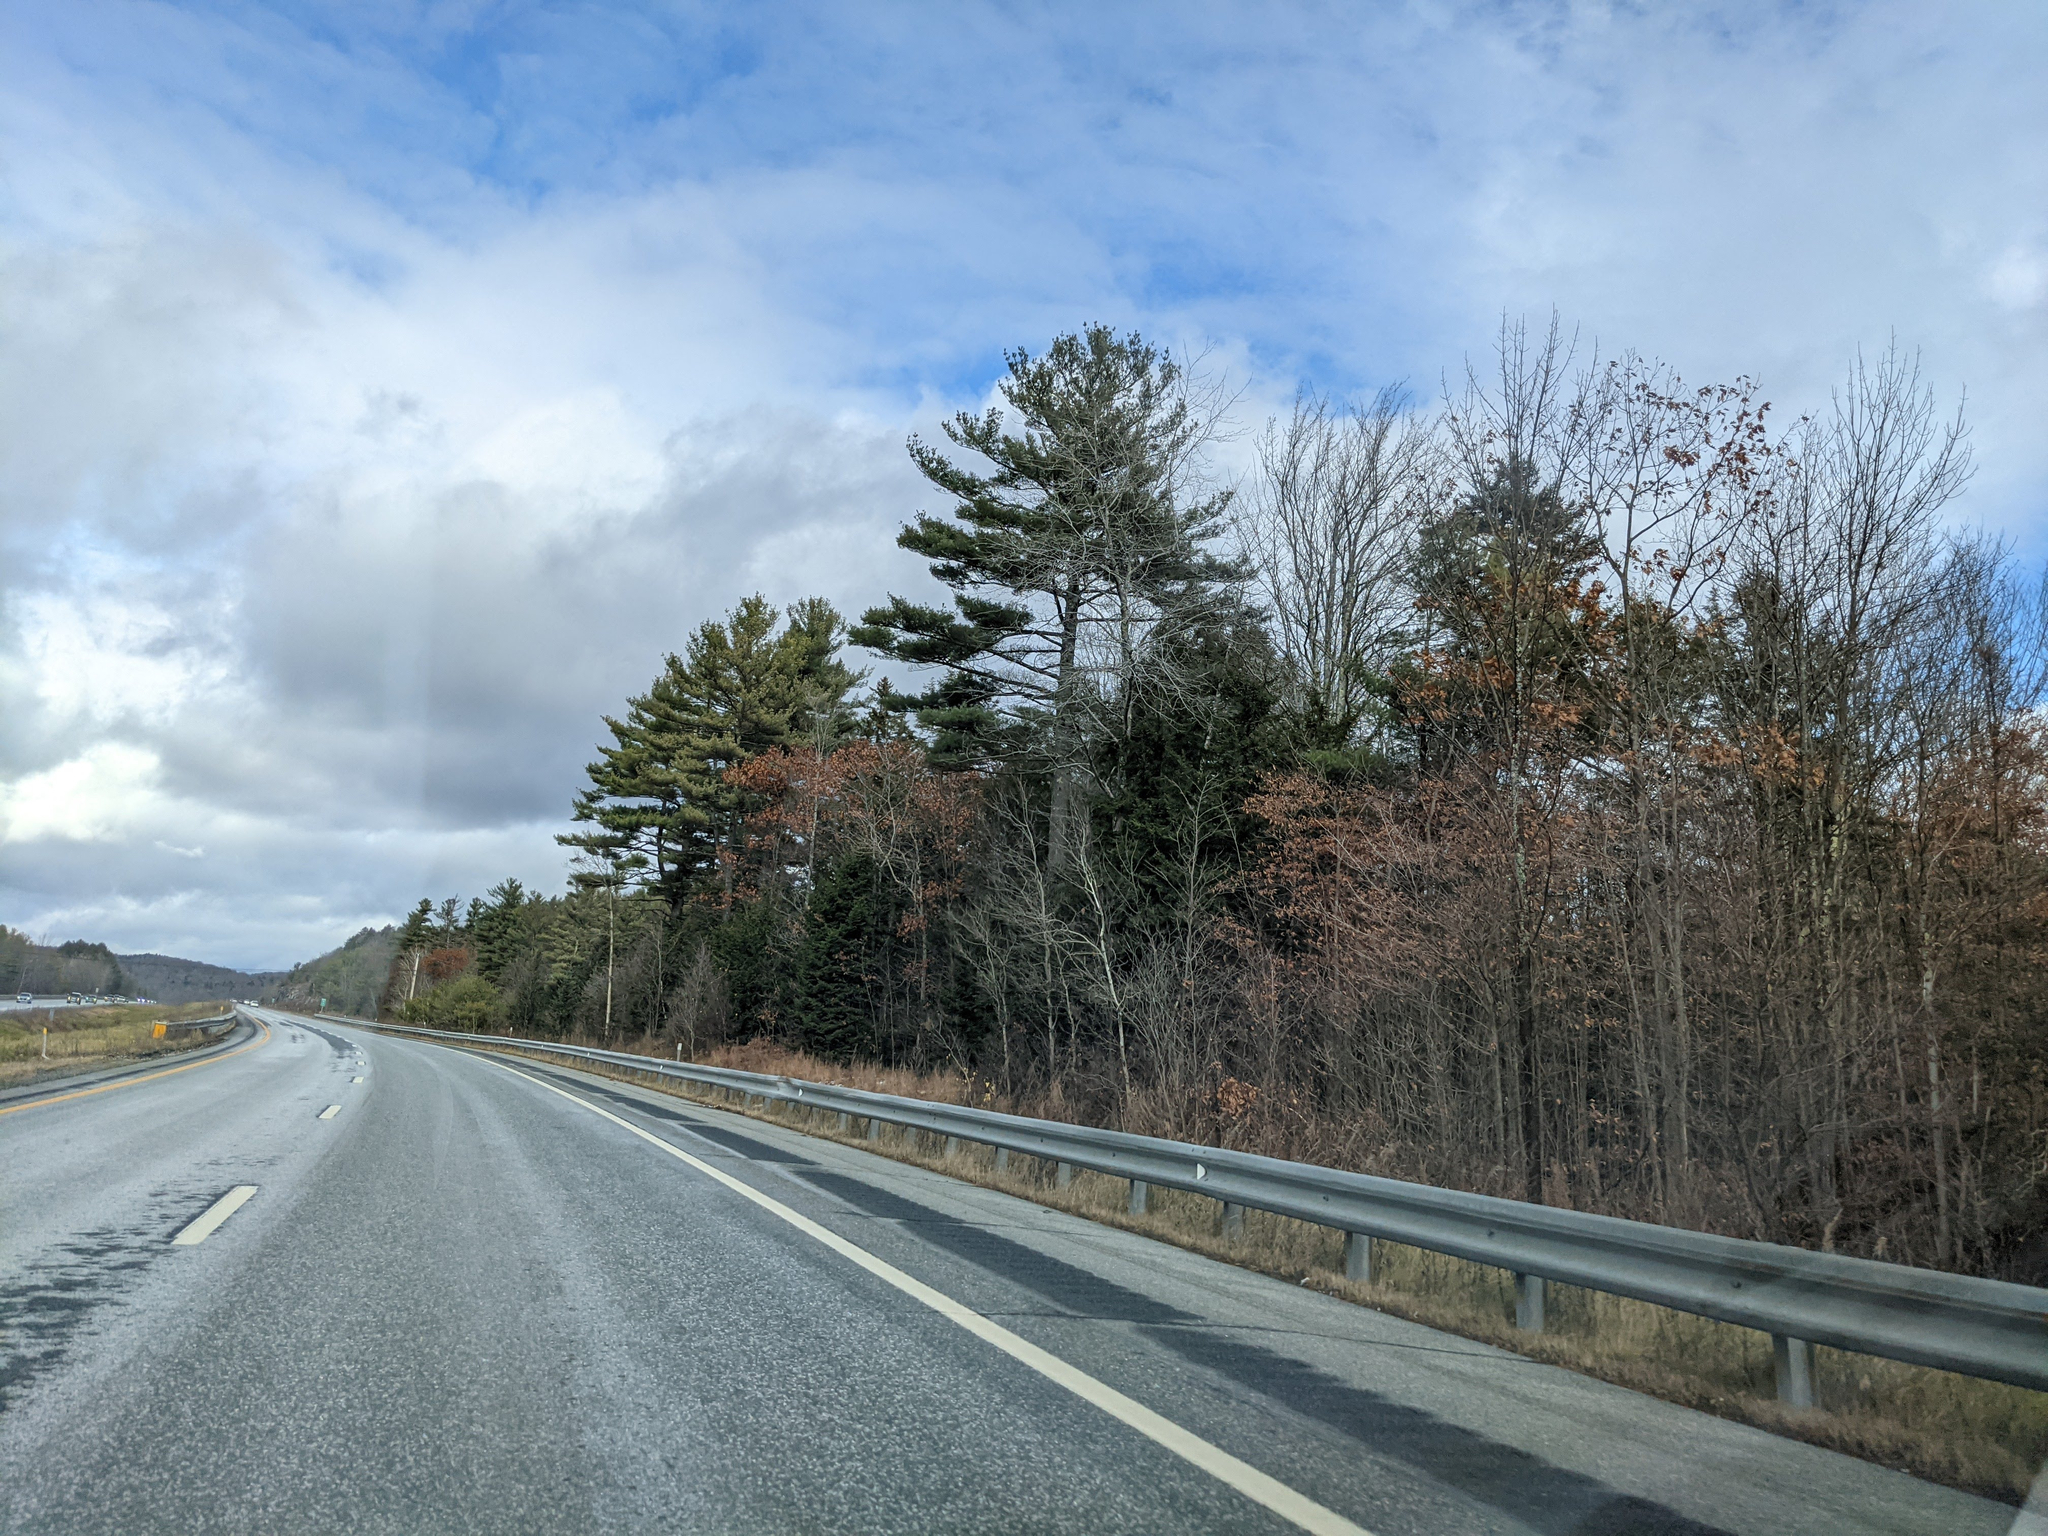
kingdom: Plantae
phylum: Tracheophyta
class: Pinopsida
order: Pinales
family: Pinaceae
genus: Pinus
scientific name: Pinus strobus
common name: Weymouth pine
